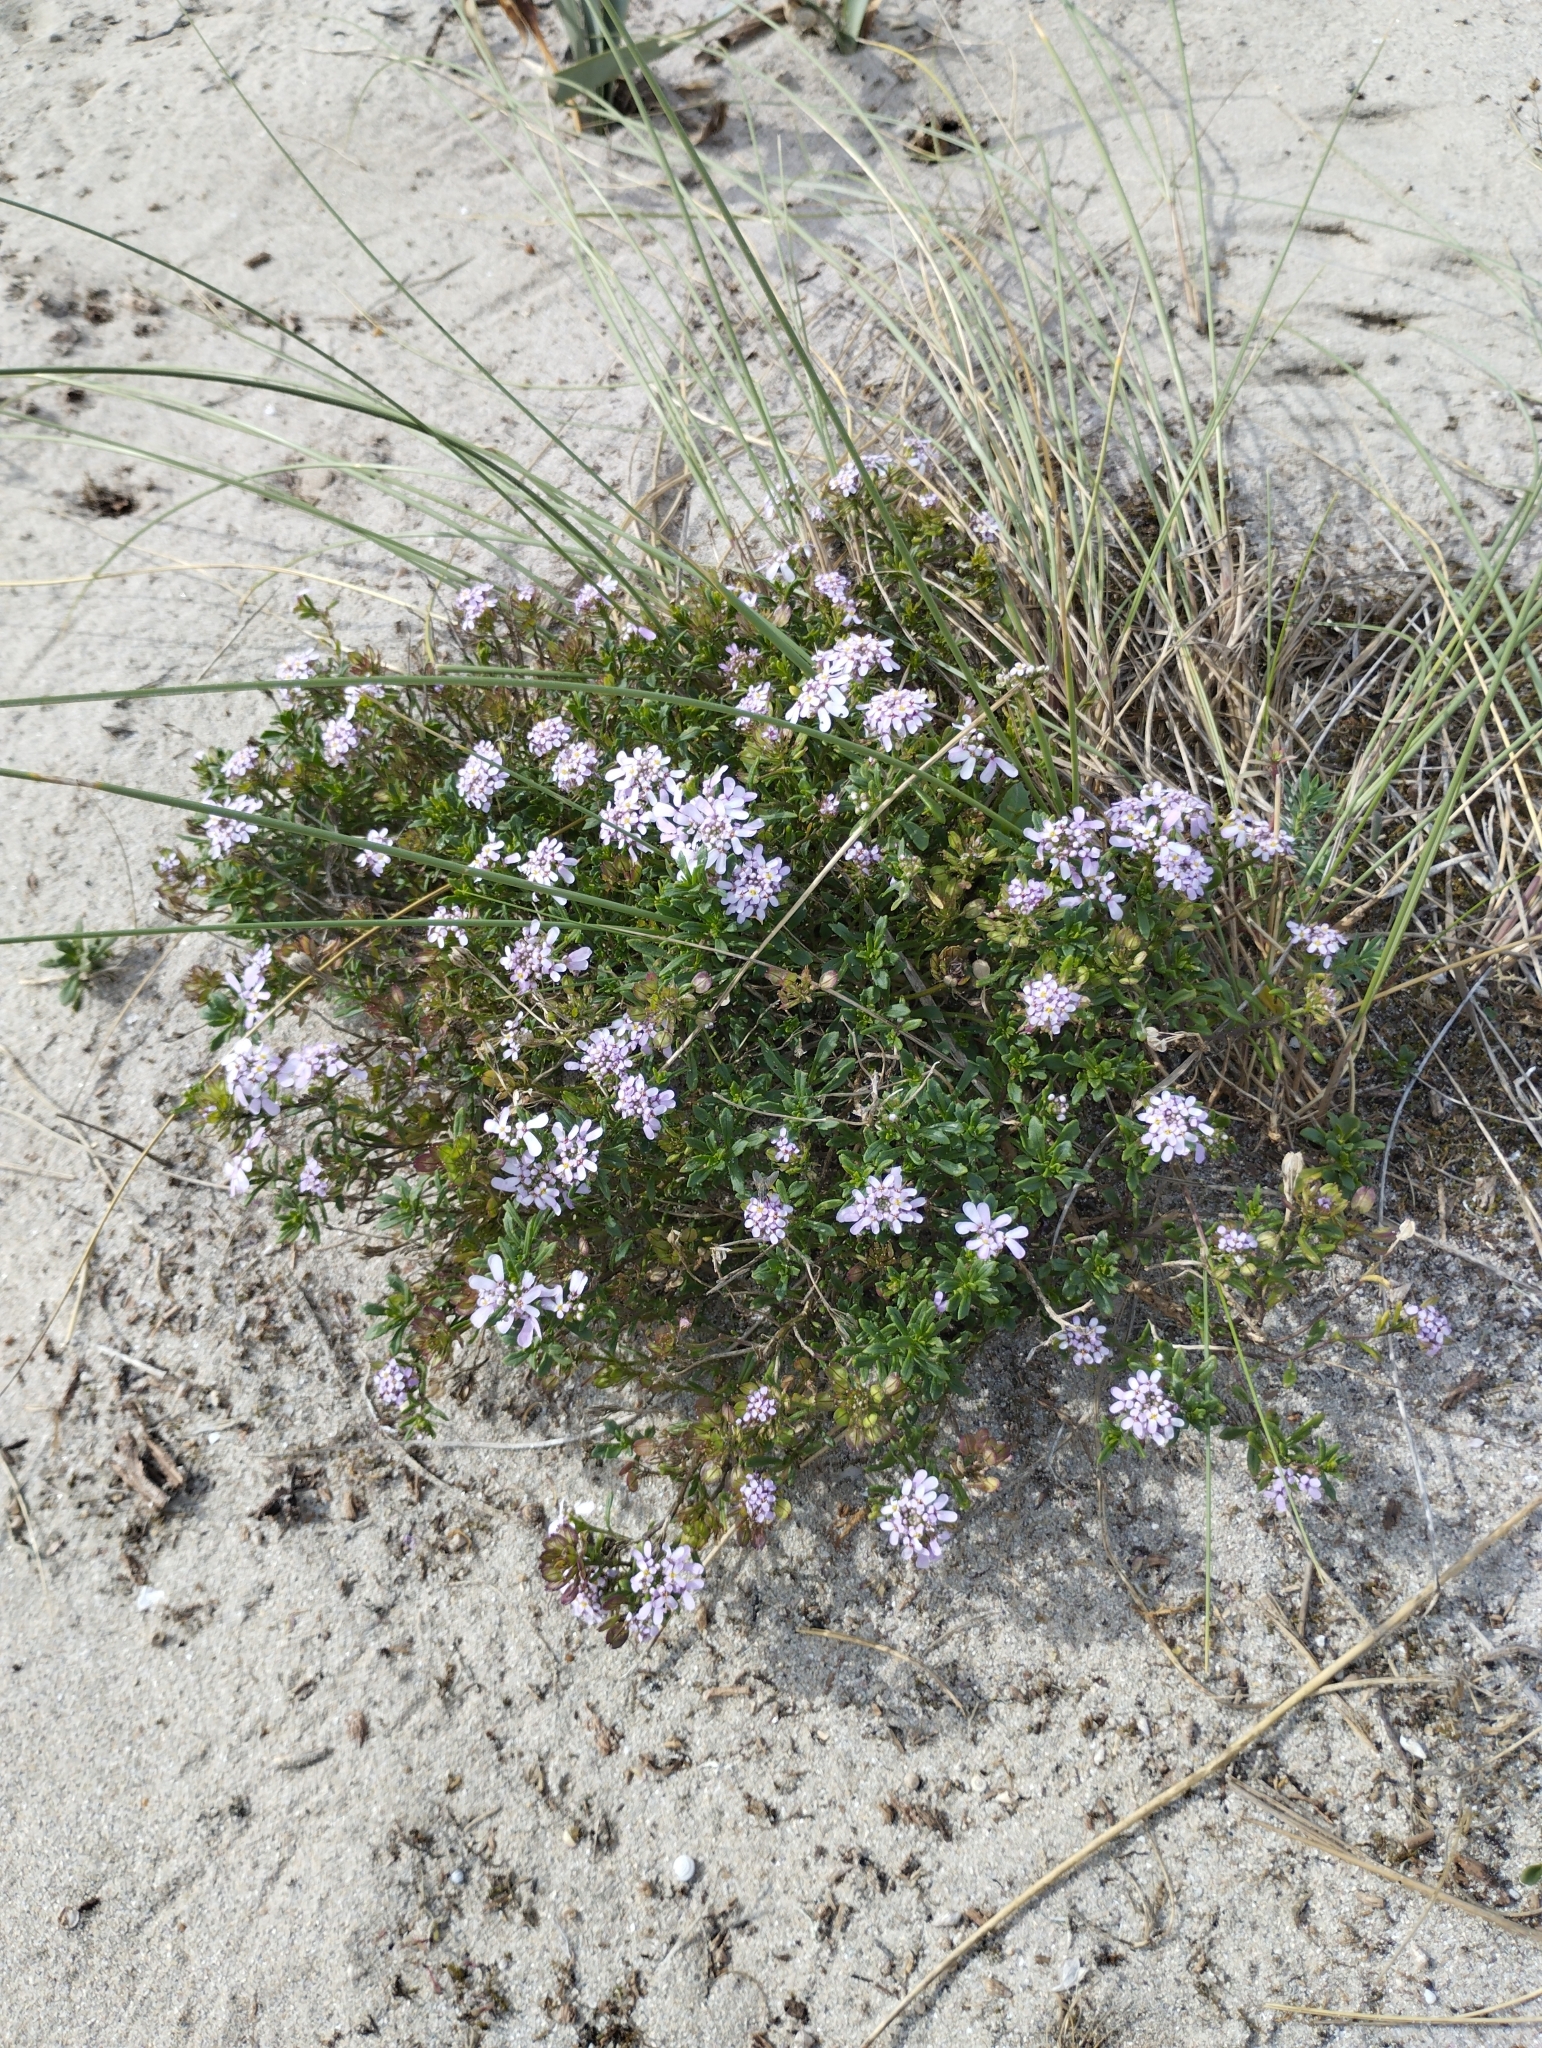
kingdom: Plantae
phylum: Tracheophyta
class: Magnoliopsida
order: Brassicales
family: Brassicaceae
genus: Iberis
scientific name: Iberis procumbens
